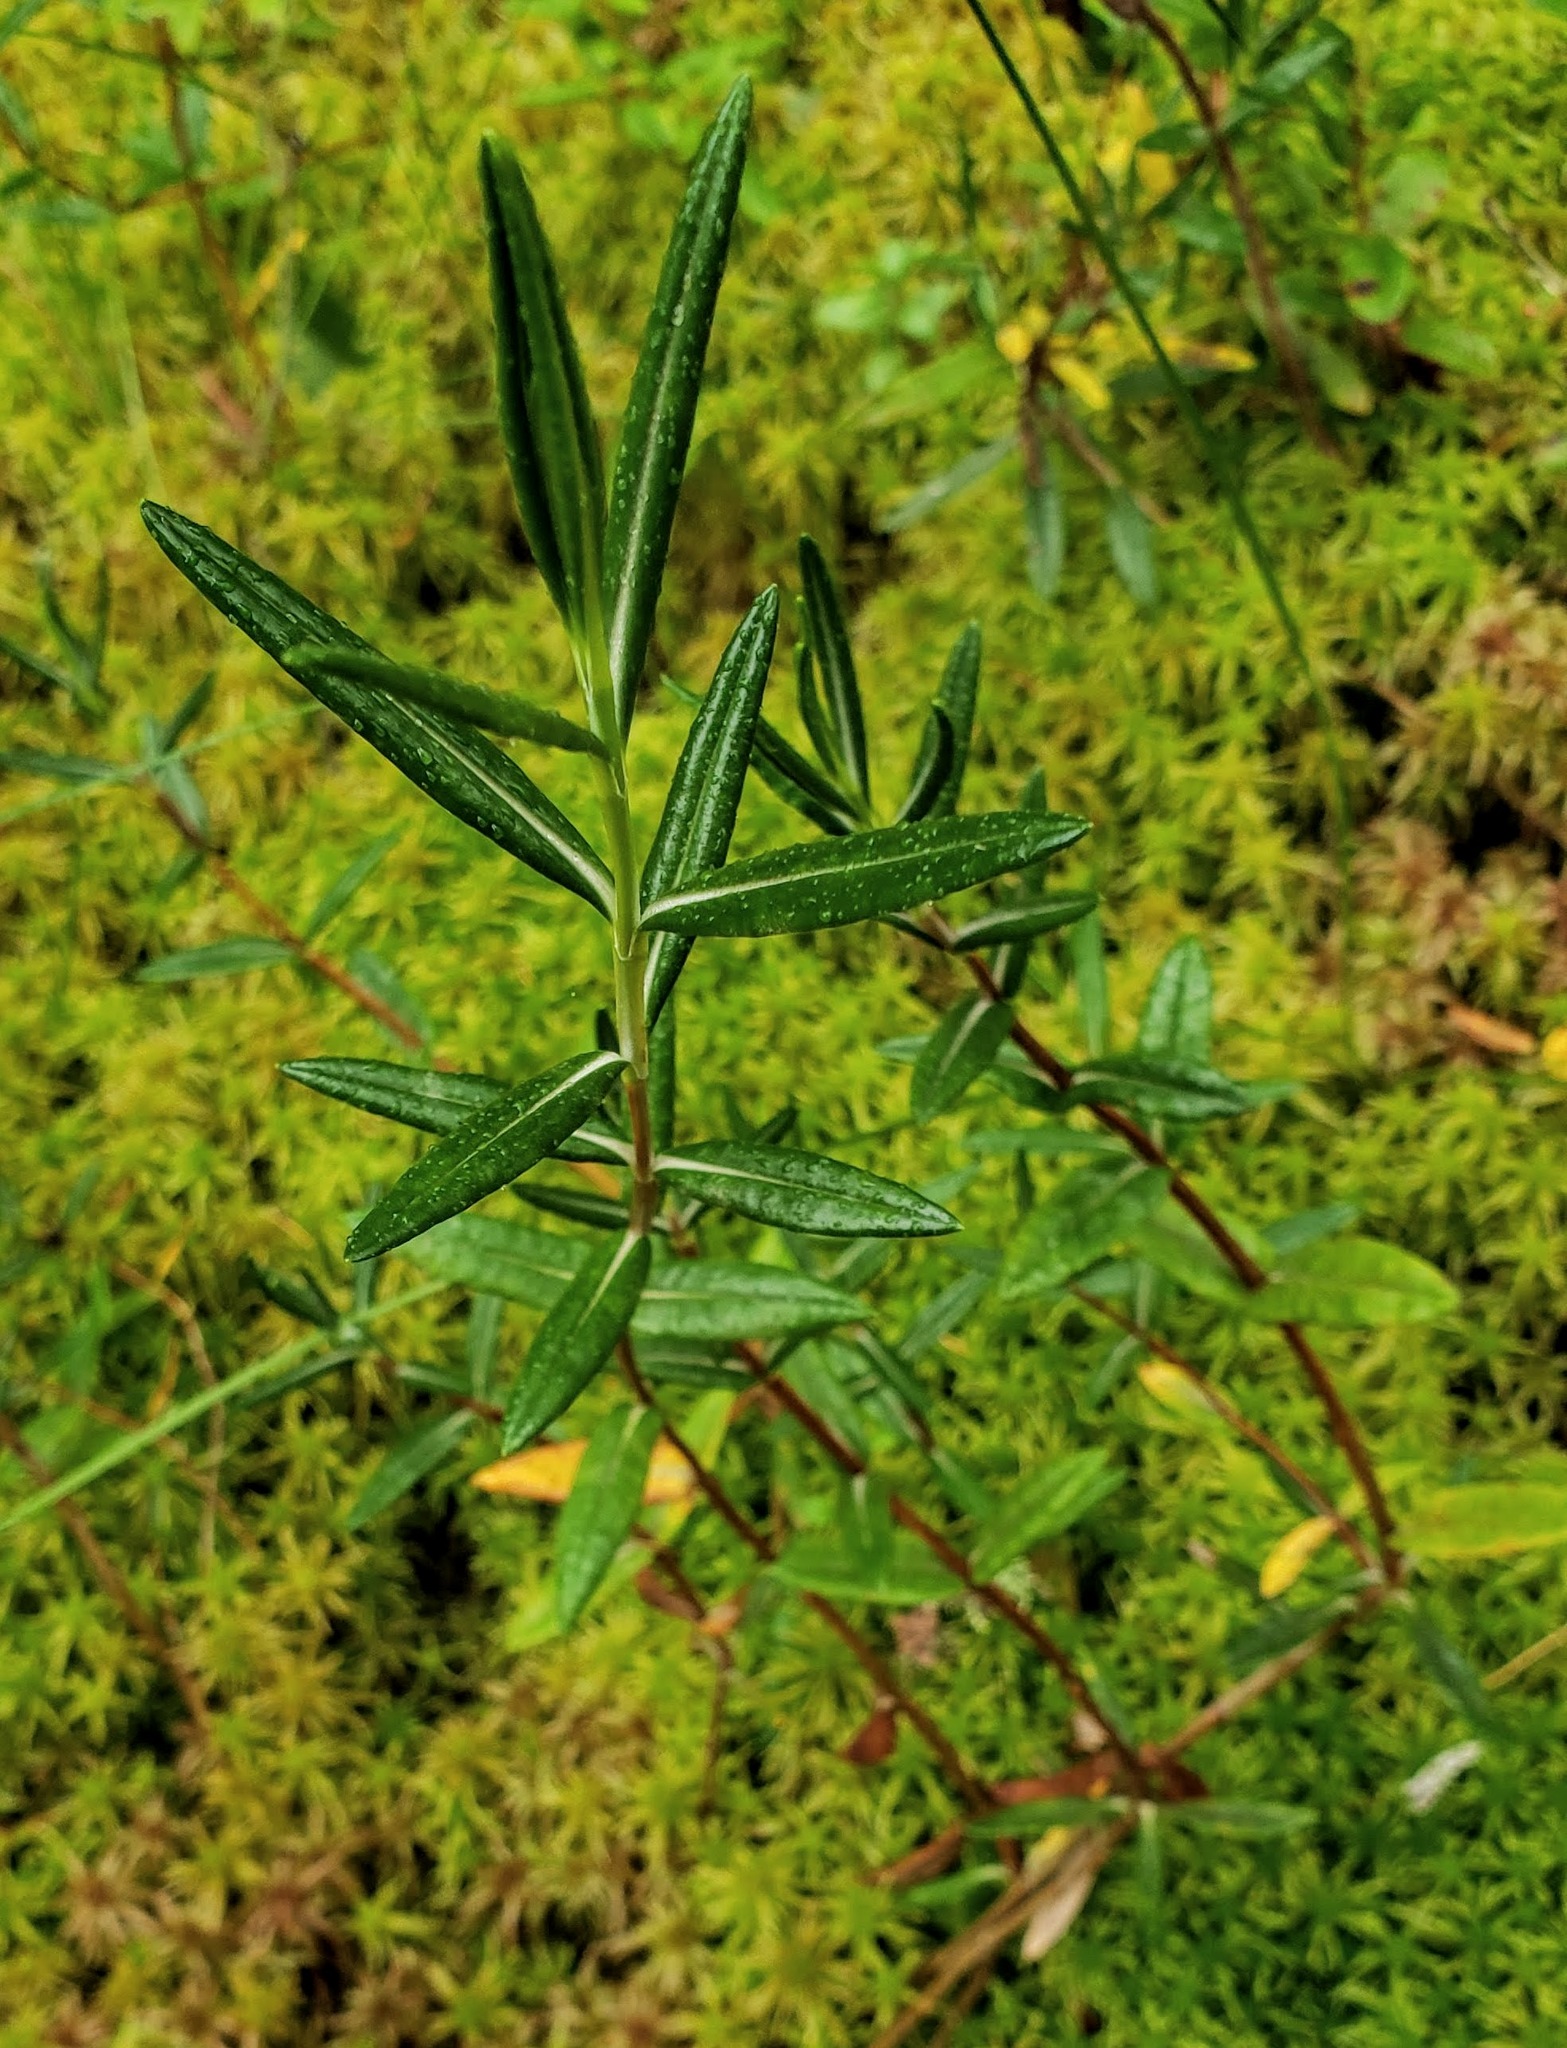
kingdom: Plantae
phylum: Tracheophyta
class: Magnoliopsida
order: Ericales
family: Ericaceae
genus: Kalmia
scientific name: Kalmia polifolia
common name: Bog-laurel
